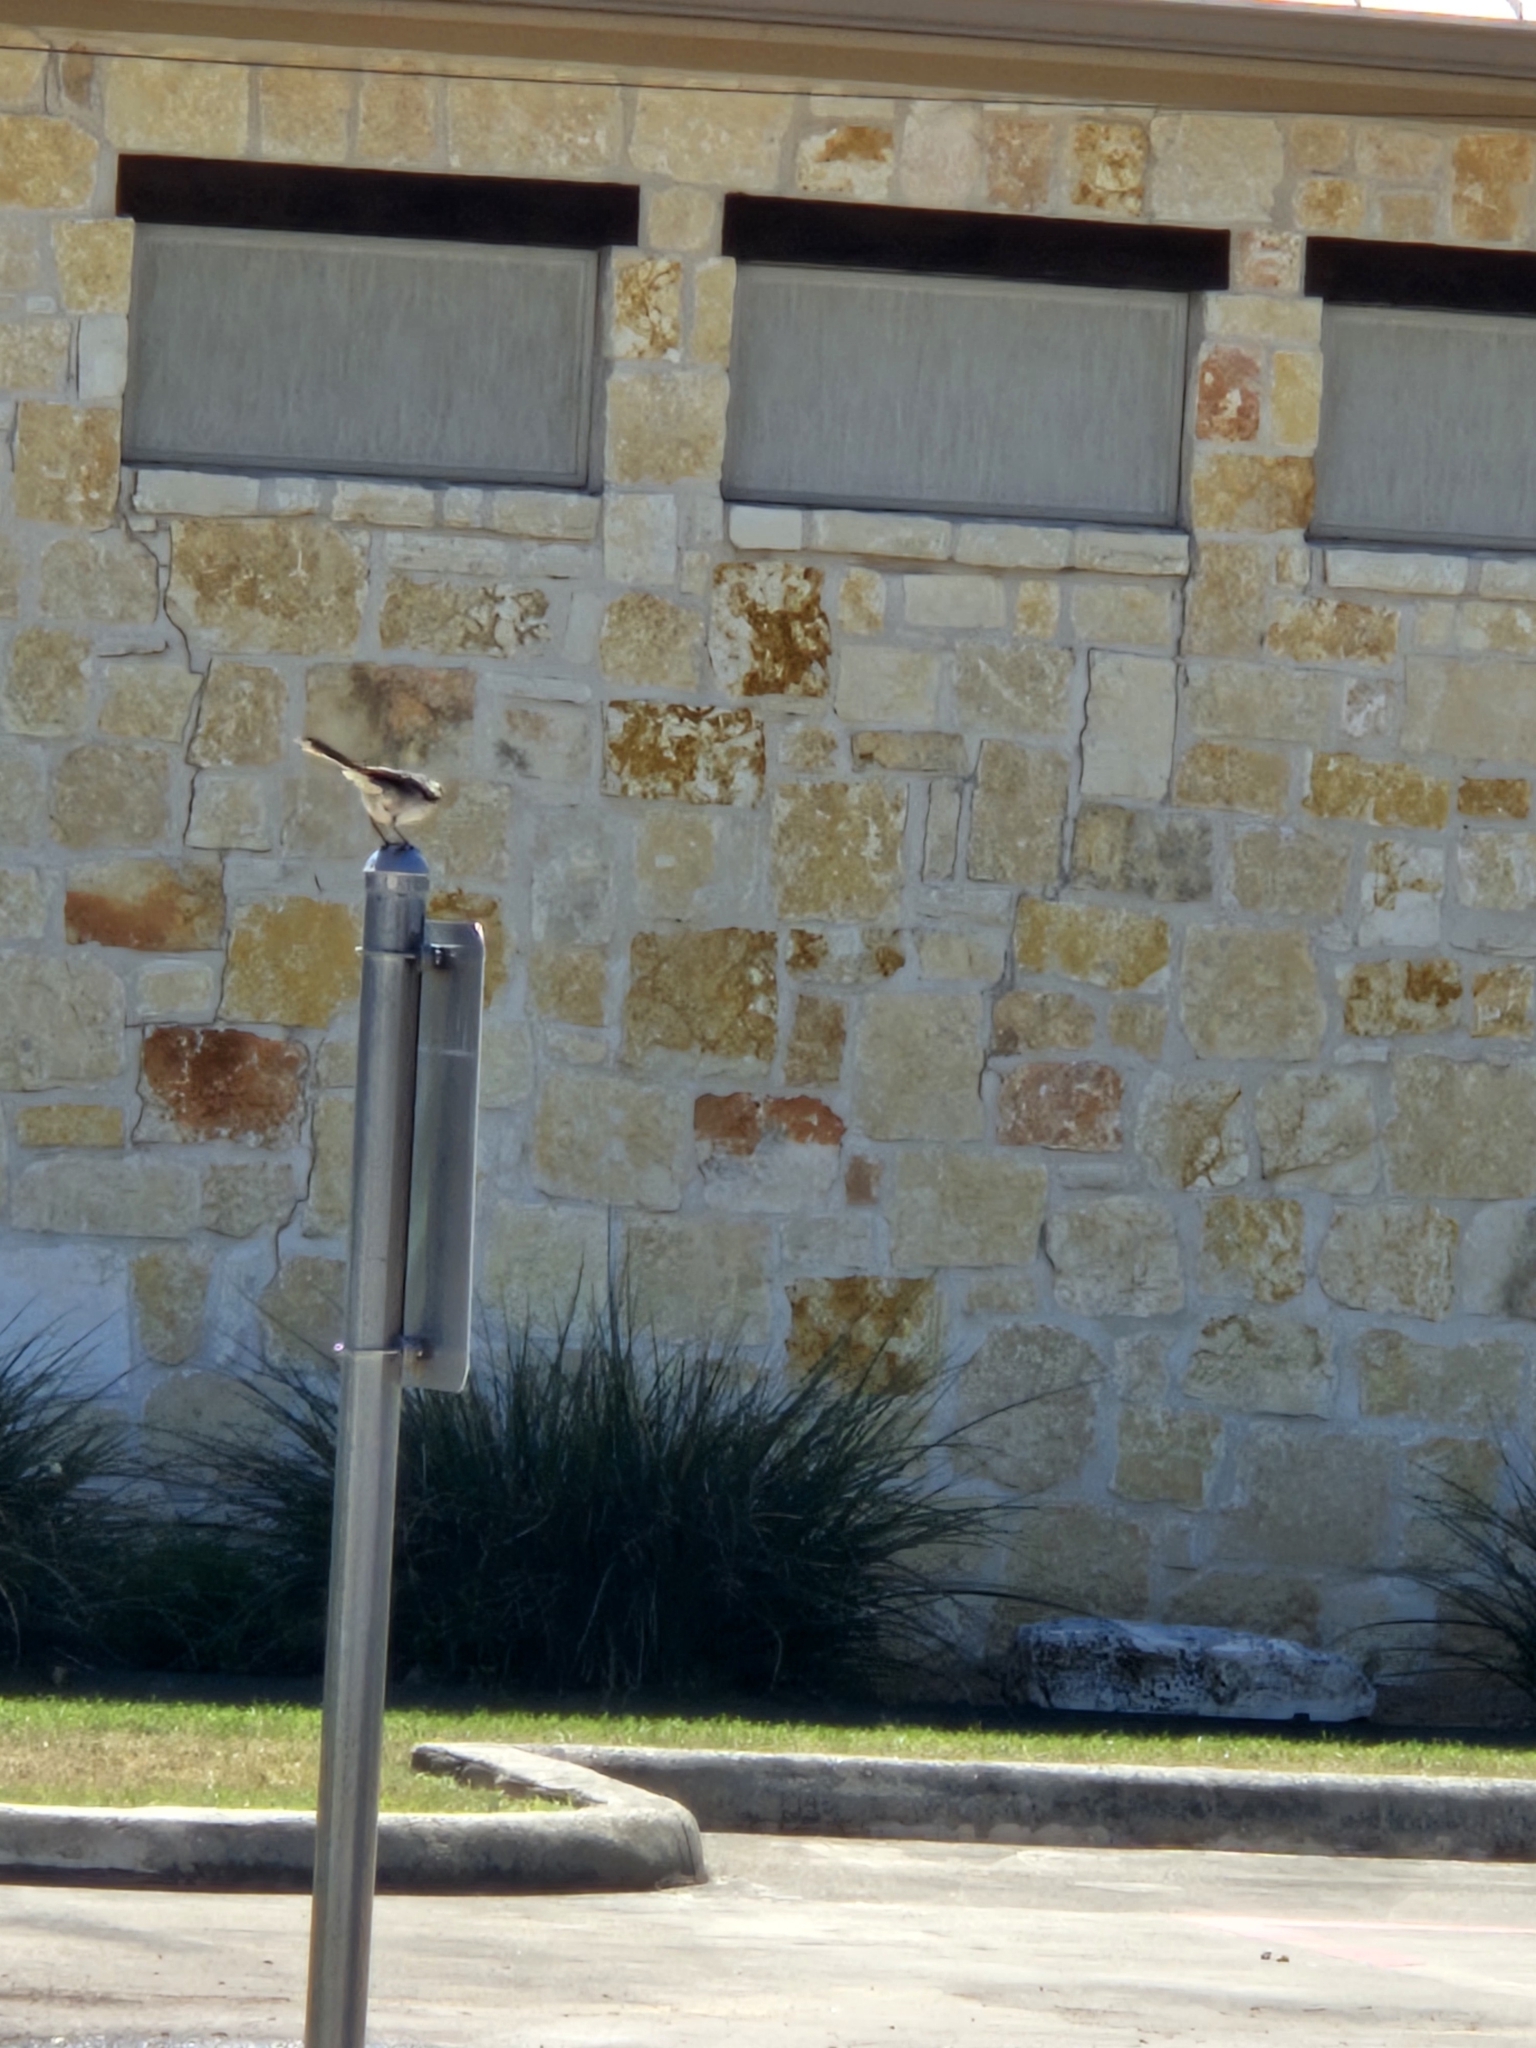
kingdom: Animalia
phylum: Chordata
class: Aves
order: Passeriformes
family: Mimidae
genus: Mimus
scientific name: Mimus polyglottos
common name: Northern mockingbird
